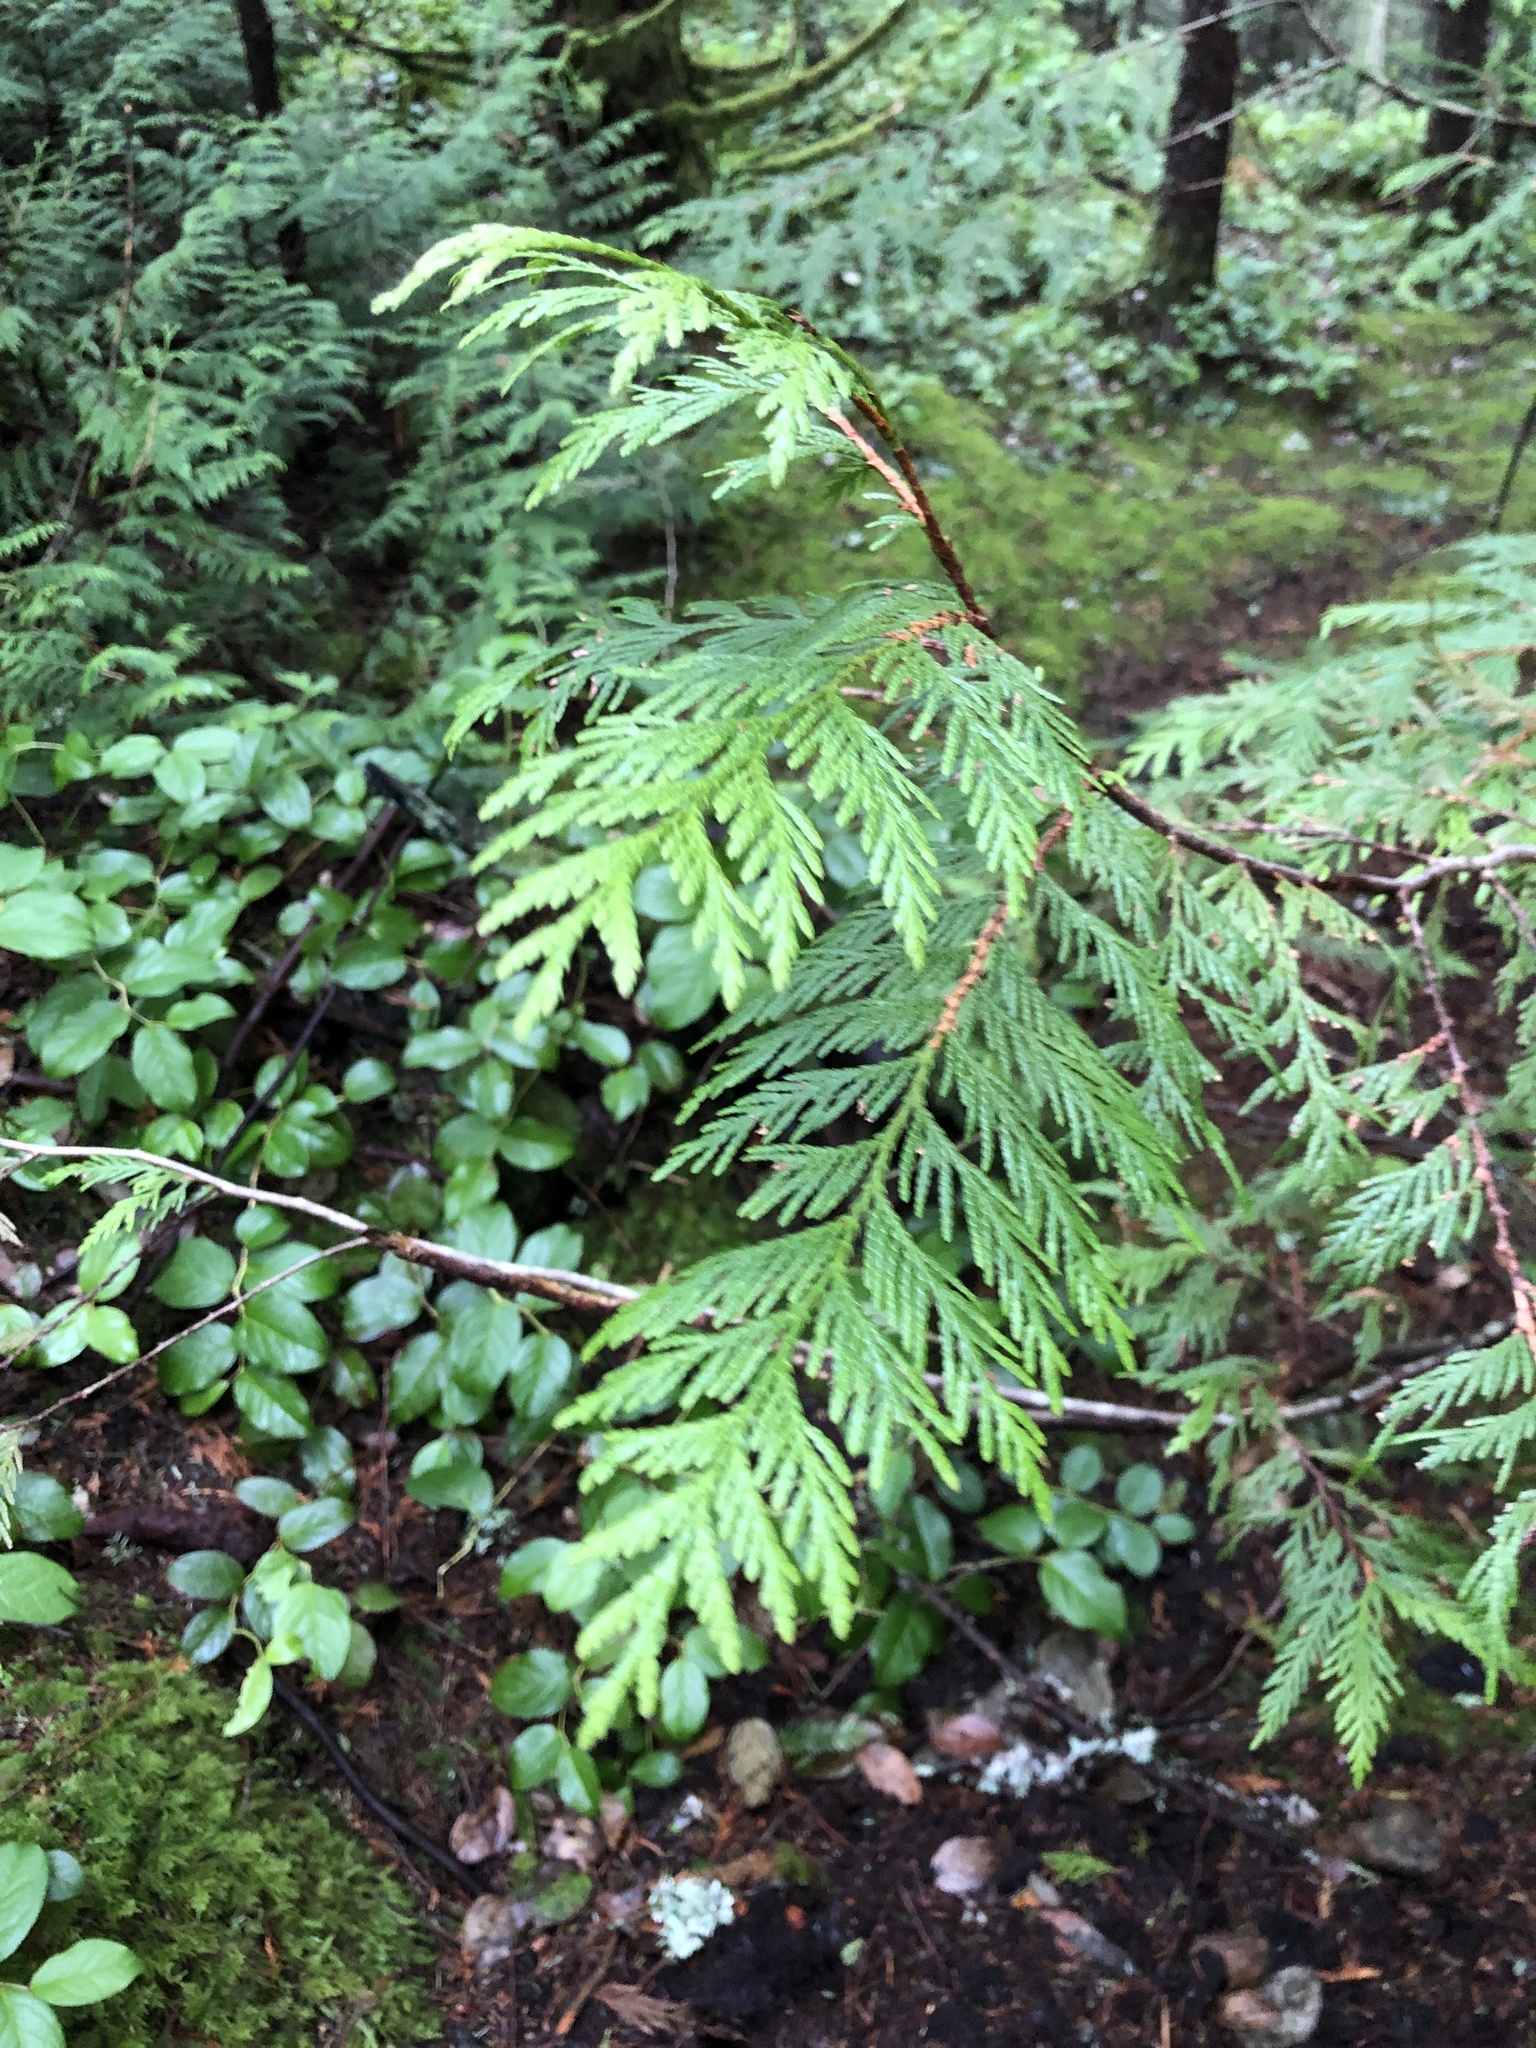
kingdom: Plantae
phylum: Tracheophyta
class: Pinopsida
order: Pinales
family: Cupressaceae
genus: Thuja
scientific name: Thuja plicata
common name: Western red-cedar
